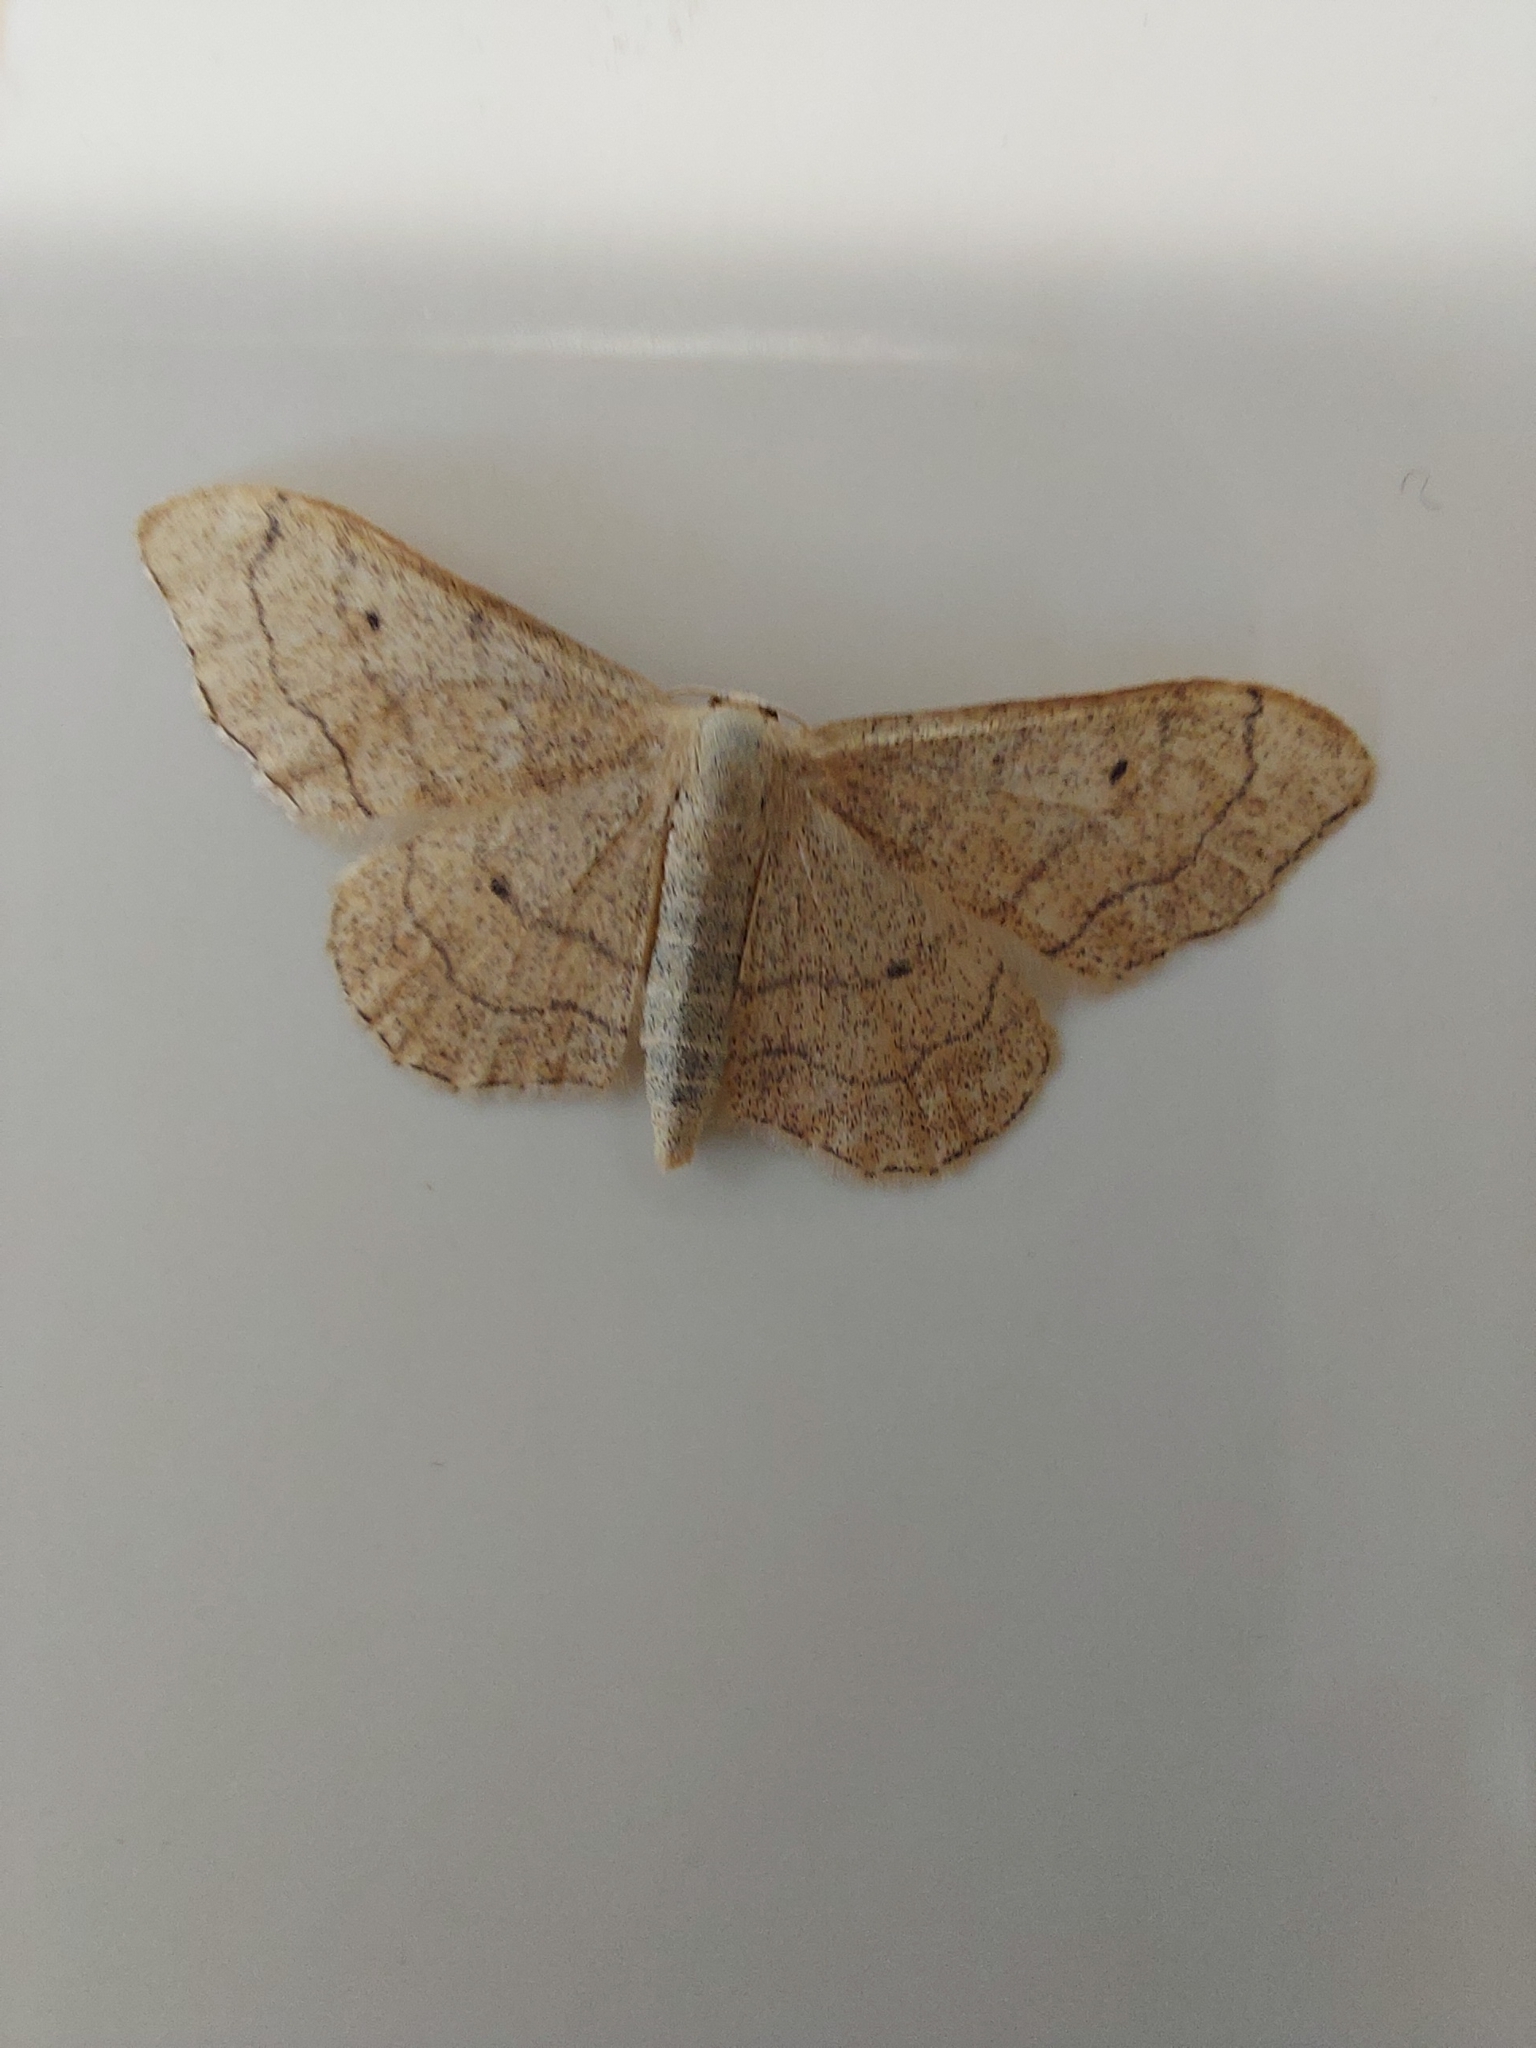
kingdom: Animalia
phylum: Arthropoda
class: Insecta
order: Lepidoptera
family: Geometridae
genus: Idaea
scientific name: Idaea aversata
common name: Riband wave
